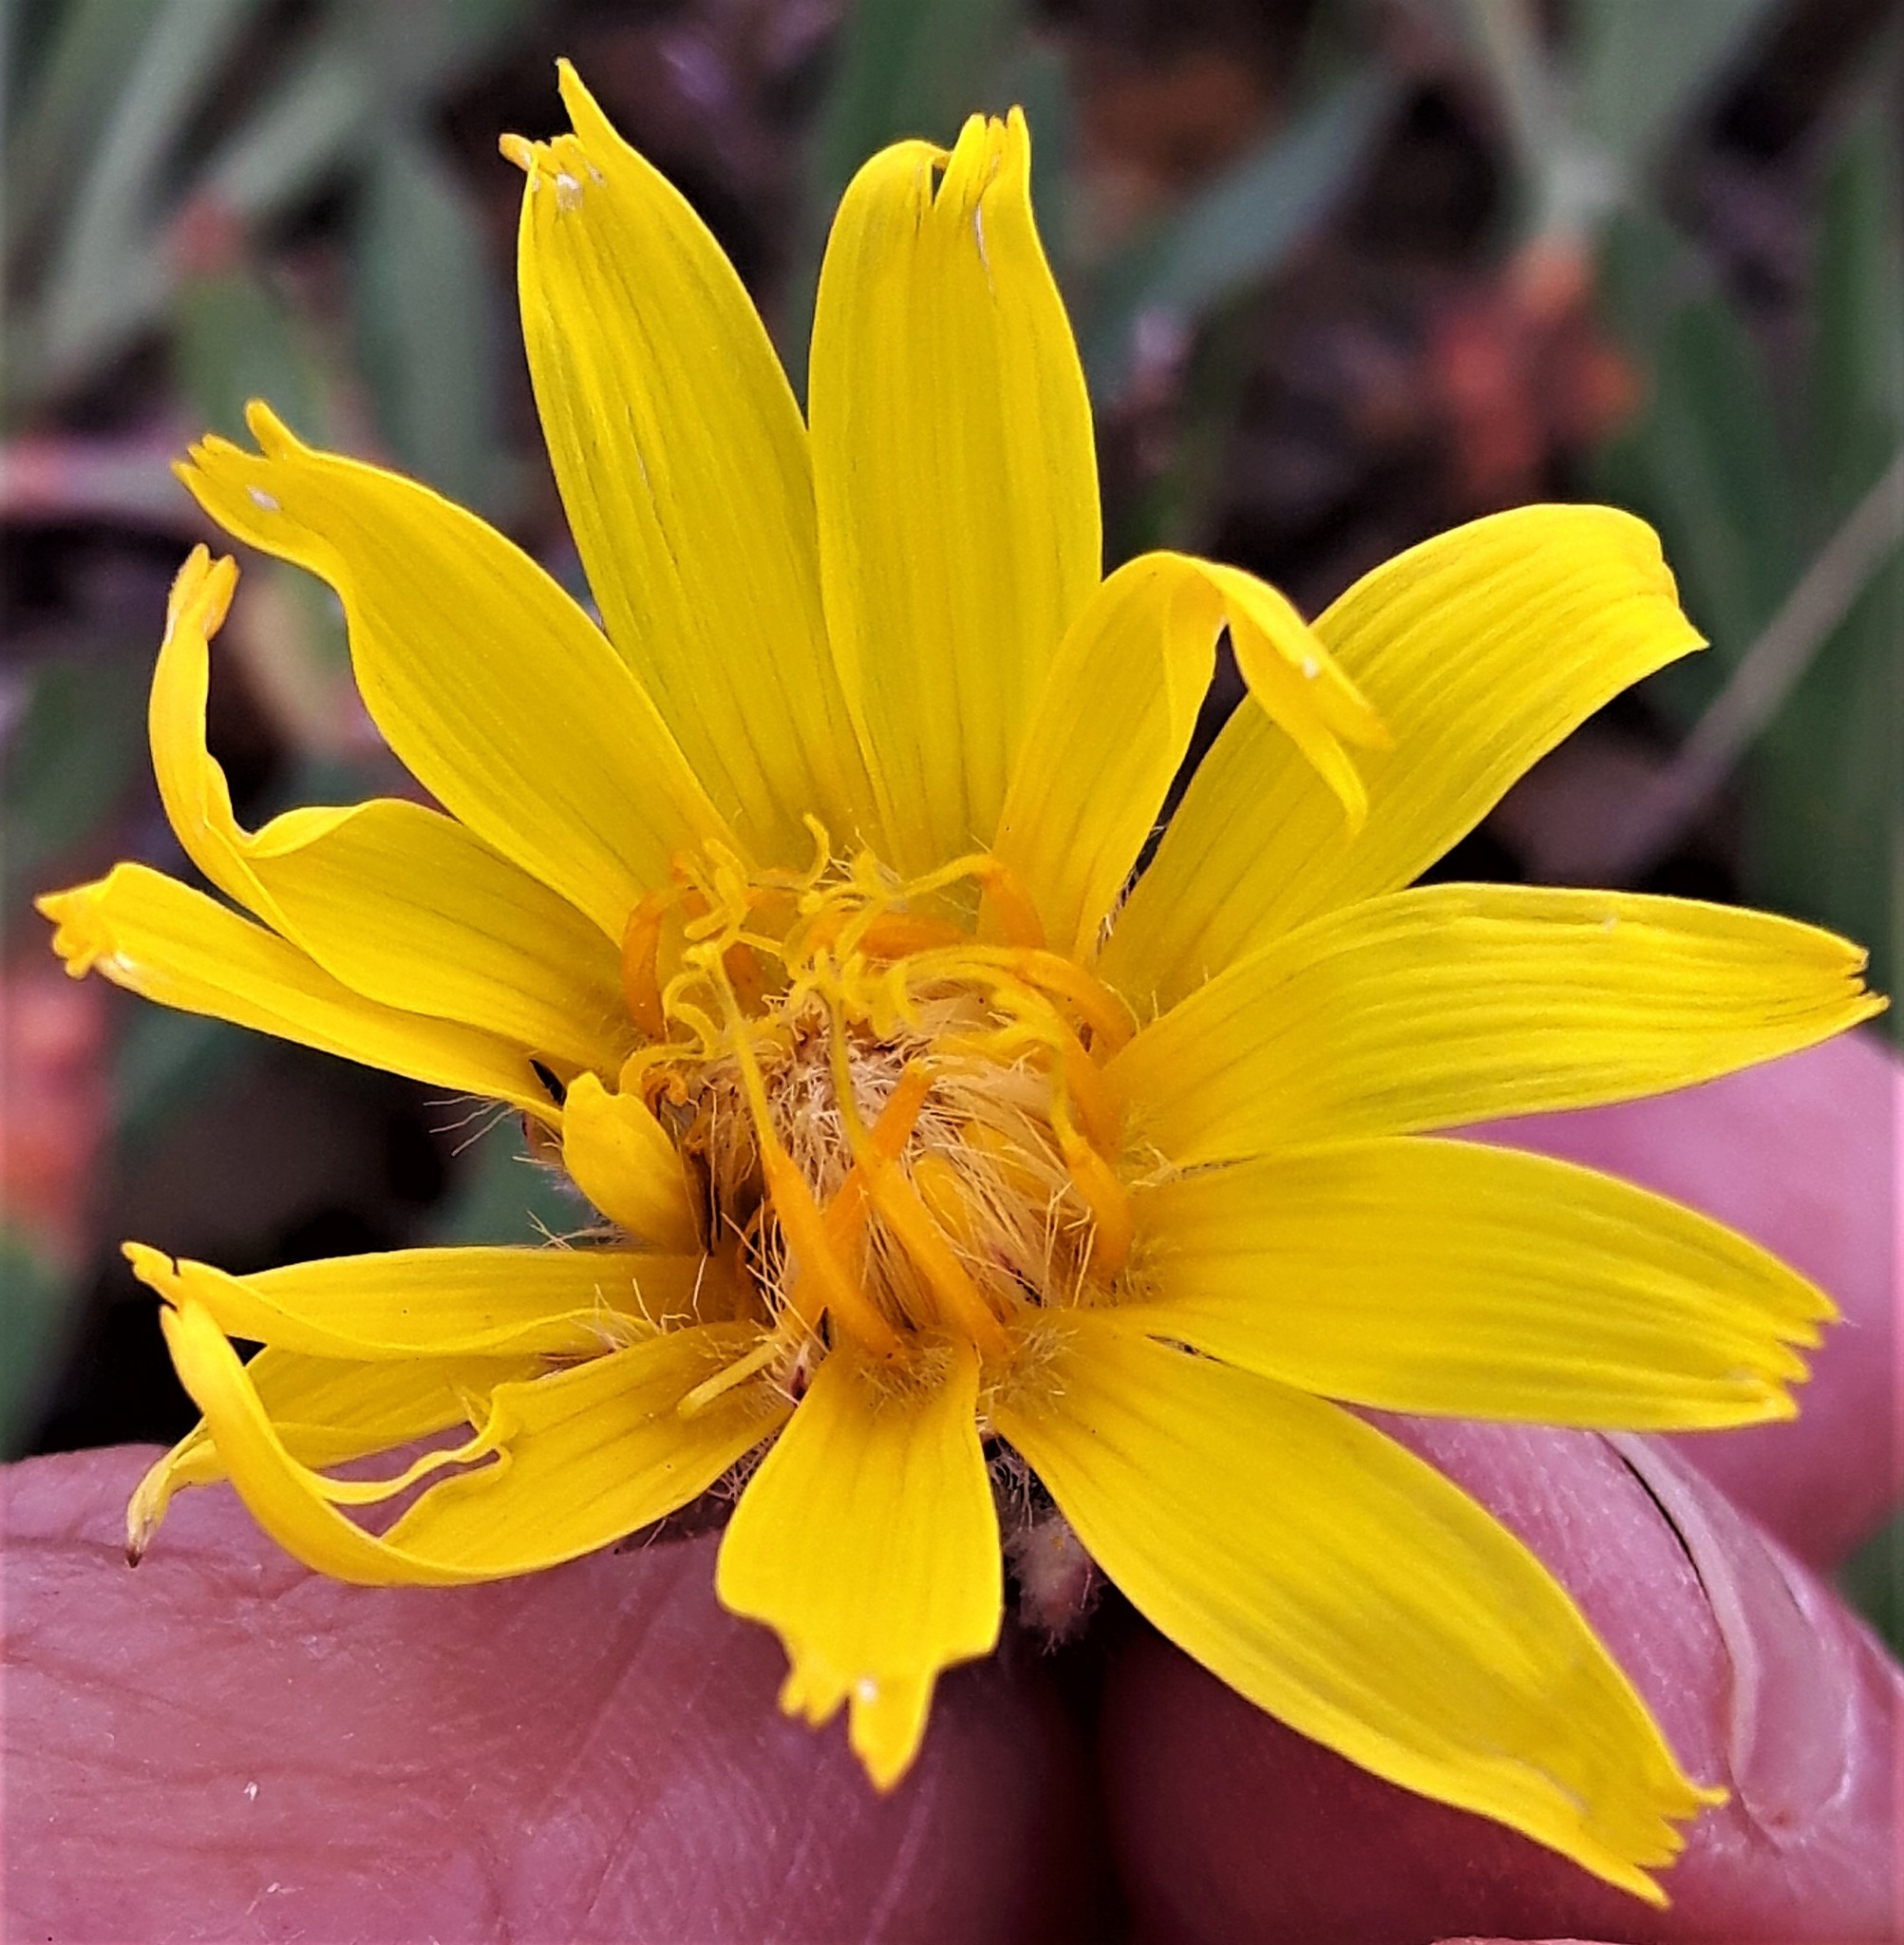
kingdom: Plantae
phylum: Tracheophyta
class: Magnoliopsida
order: Asterales
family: Asteraceae
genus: Agoseris
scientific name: Agoseris glauca
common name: Prairie agoseris
